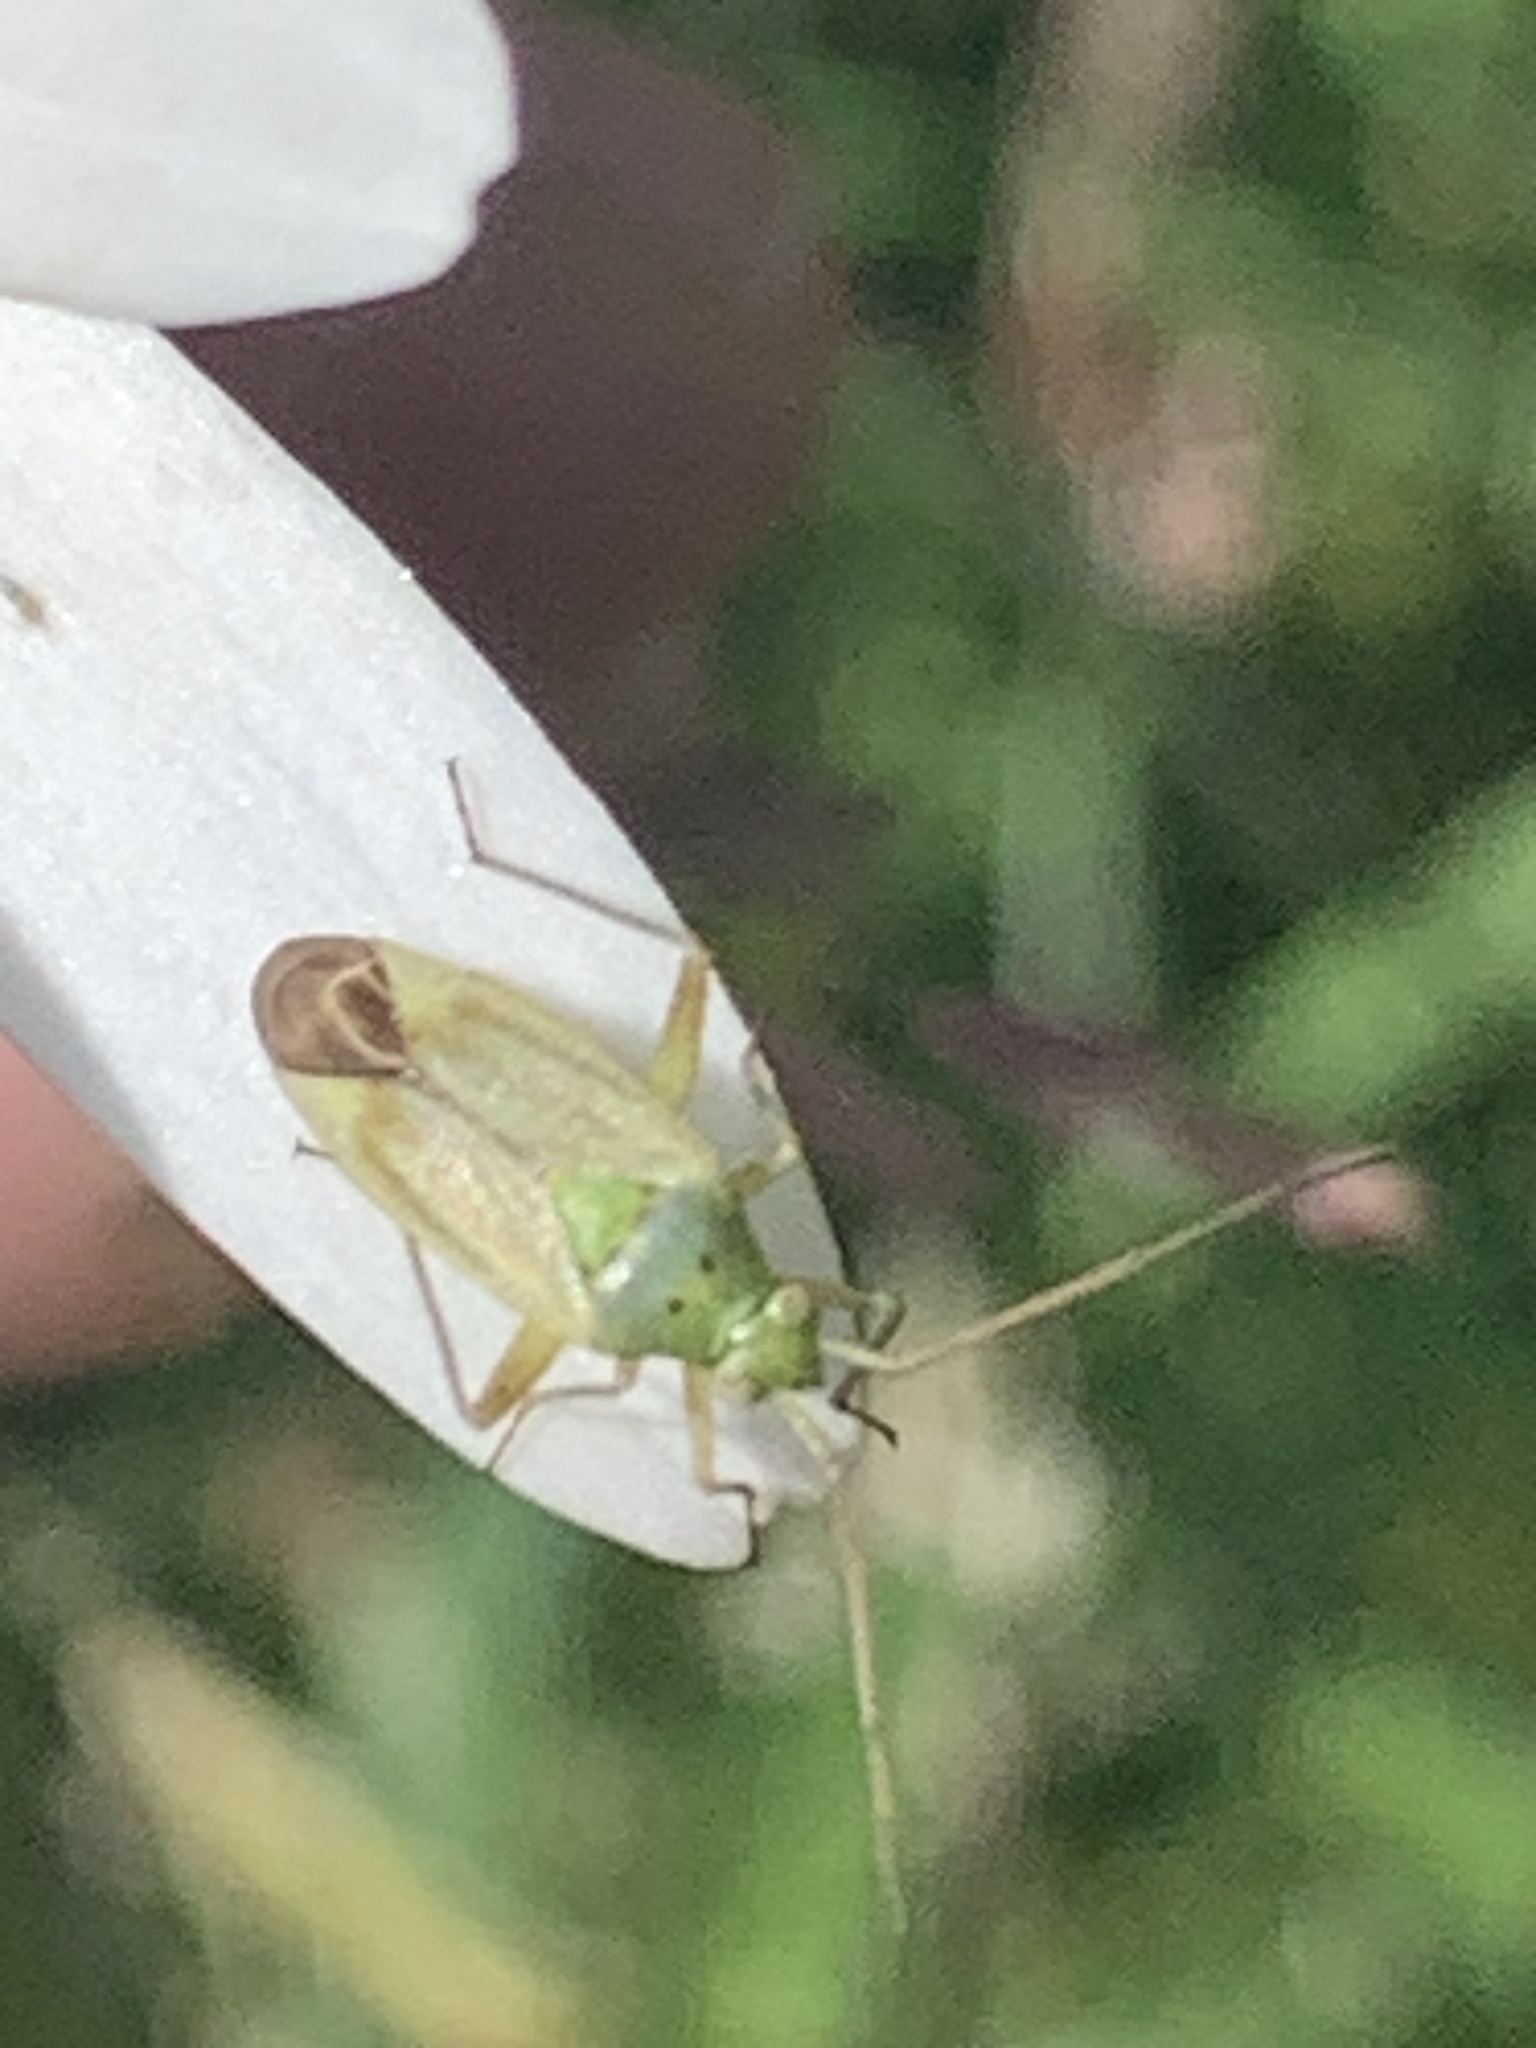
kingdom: Animalia
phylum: Arthropoda
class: Insecta
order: Hemiptera
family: Miridae
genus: Closterotomus
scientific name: Closterotomus norvegicus
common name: Plant bug
